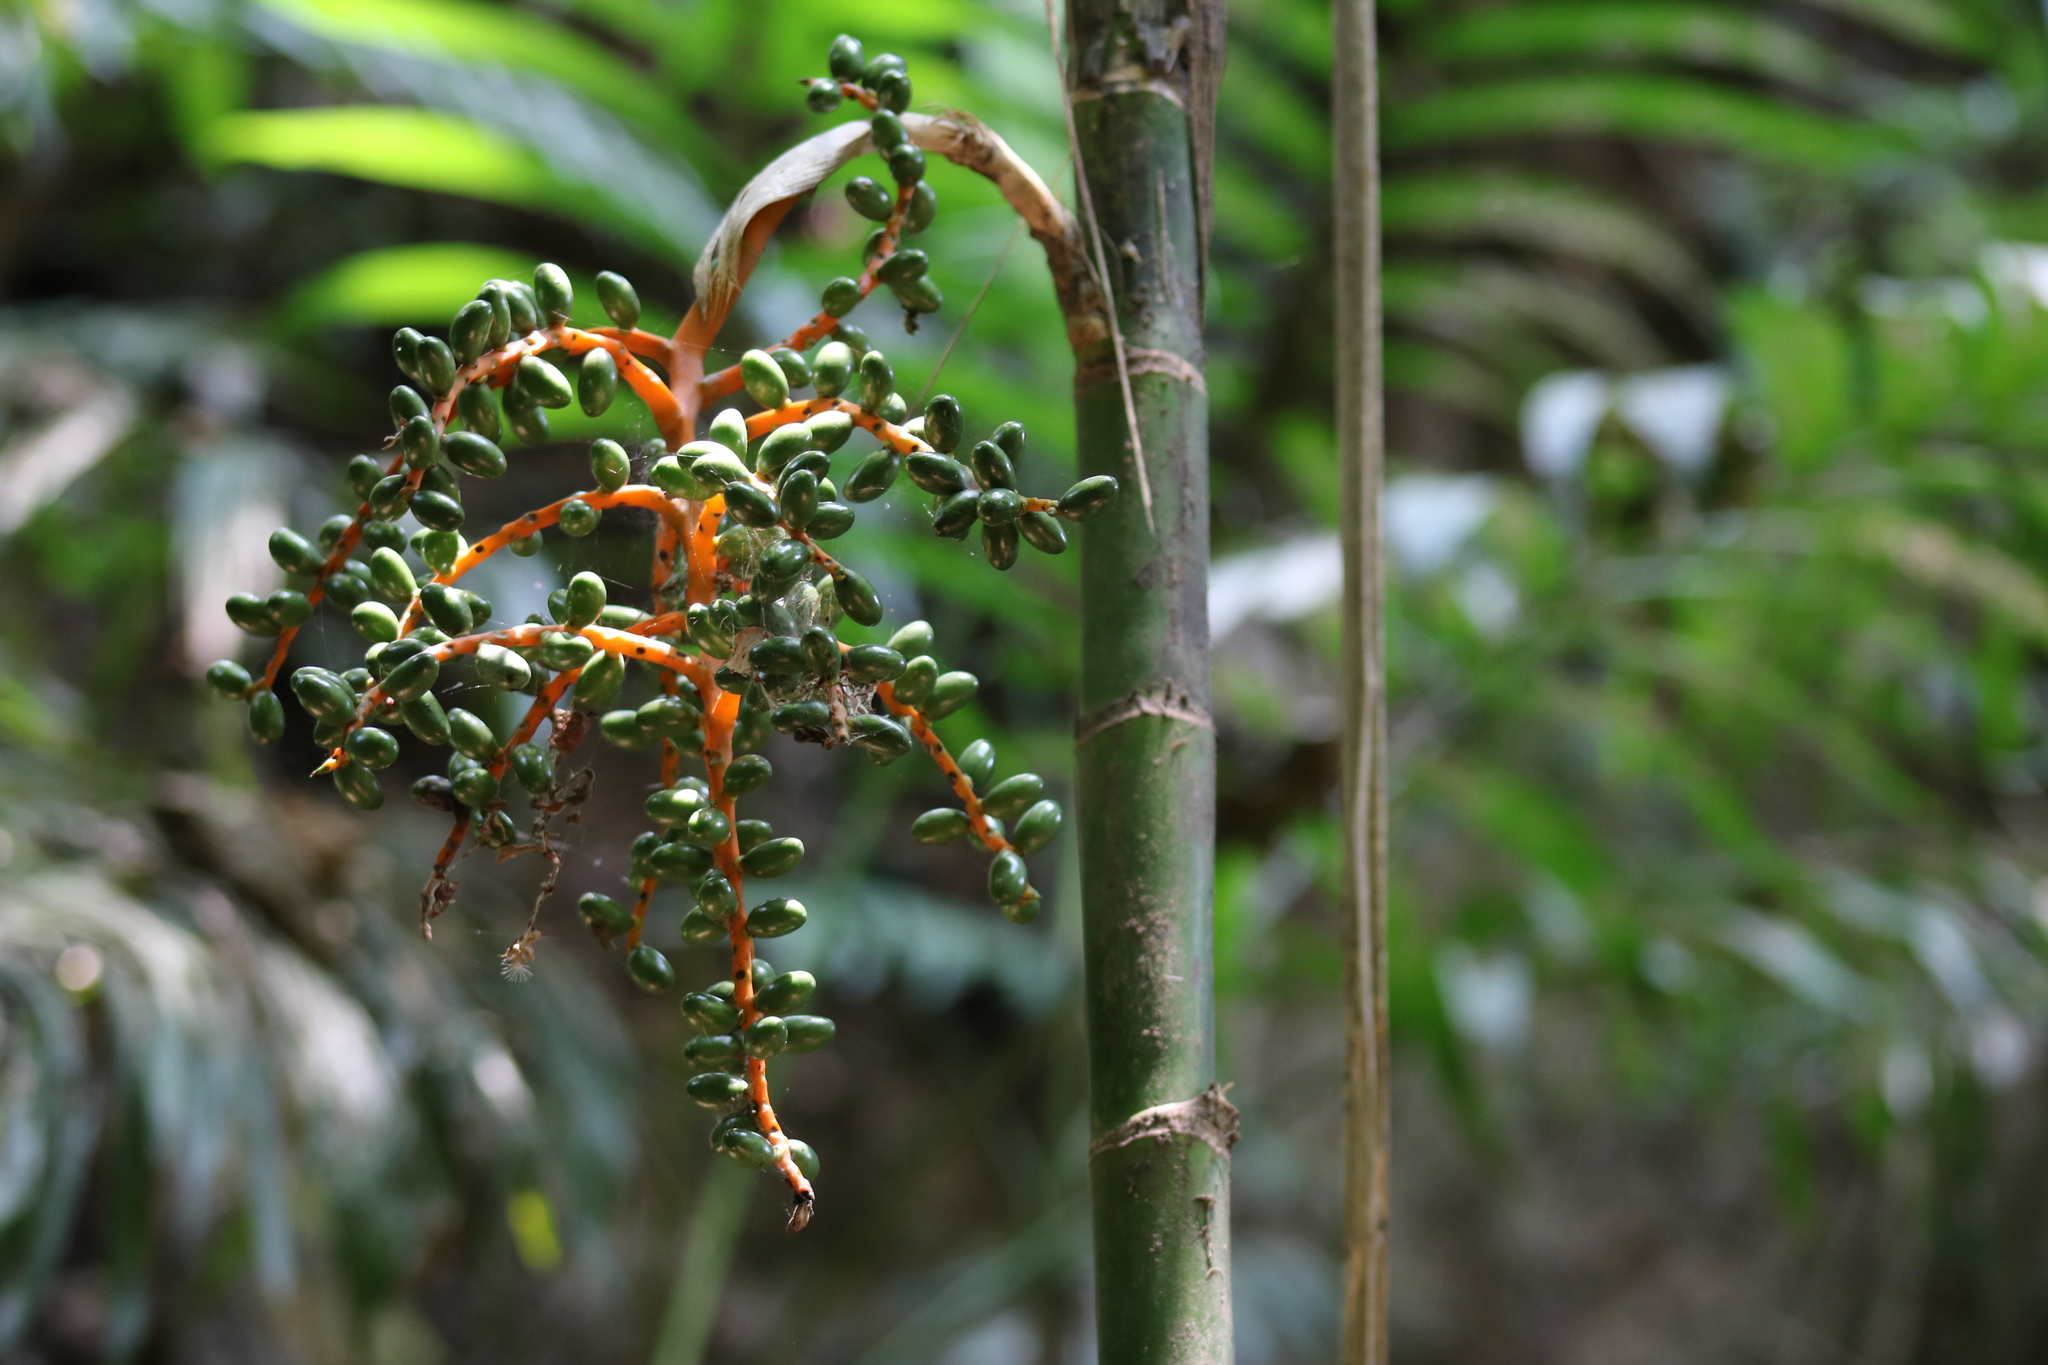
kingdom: Plantae
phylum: Tracheophyta
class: Liliopsida
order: Arecales
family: Arecaceae
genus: Chamaedorea
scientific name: Chamaedorea tepejilote
